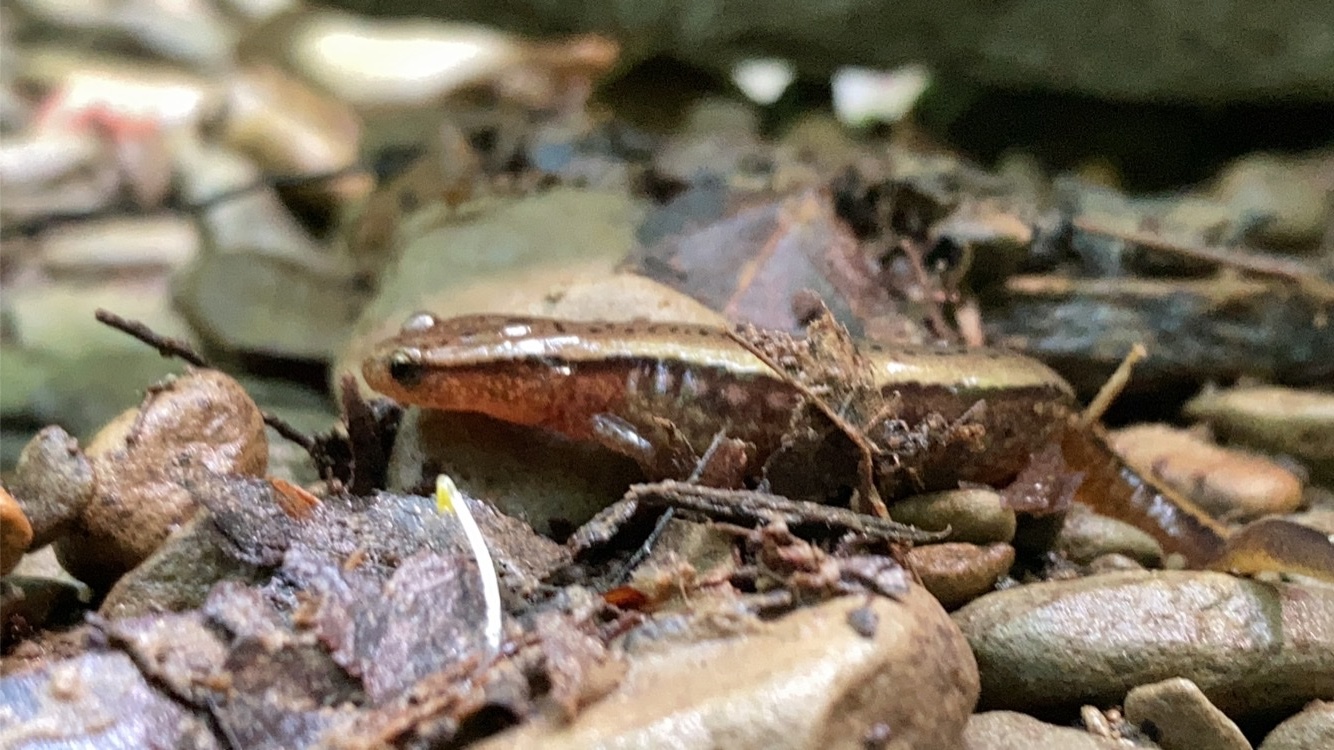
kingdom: Animalia
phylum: Chordata
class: Amphibia
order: Caudata
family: Plethodontidae
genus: Eurycea
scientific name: Eurycea cirrigera
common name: Southern two-lined salamander
